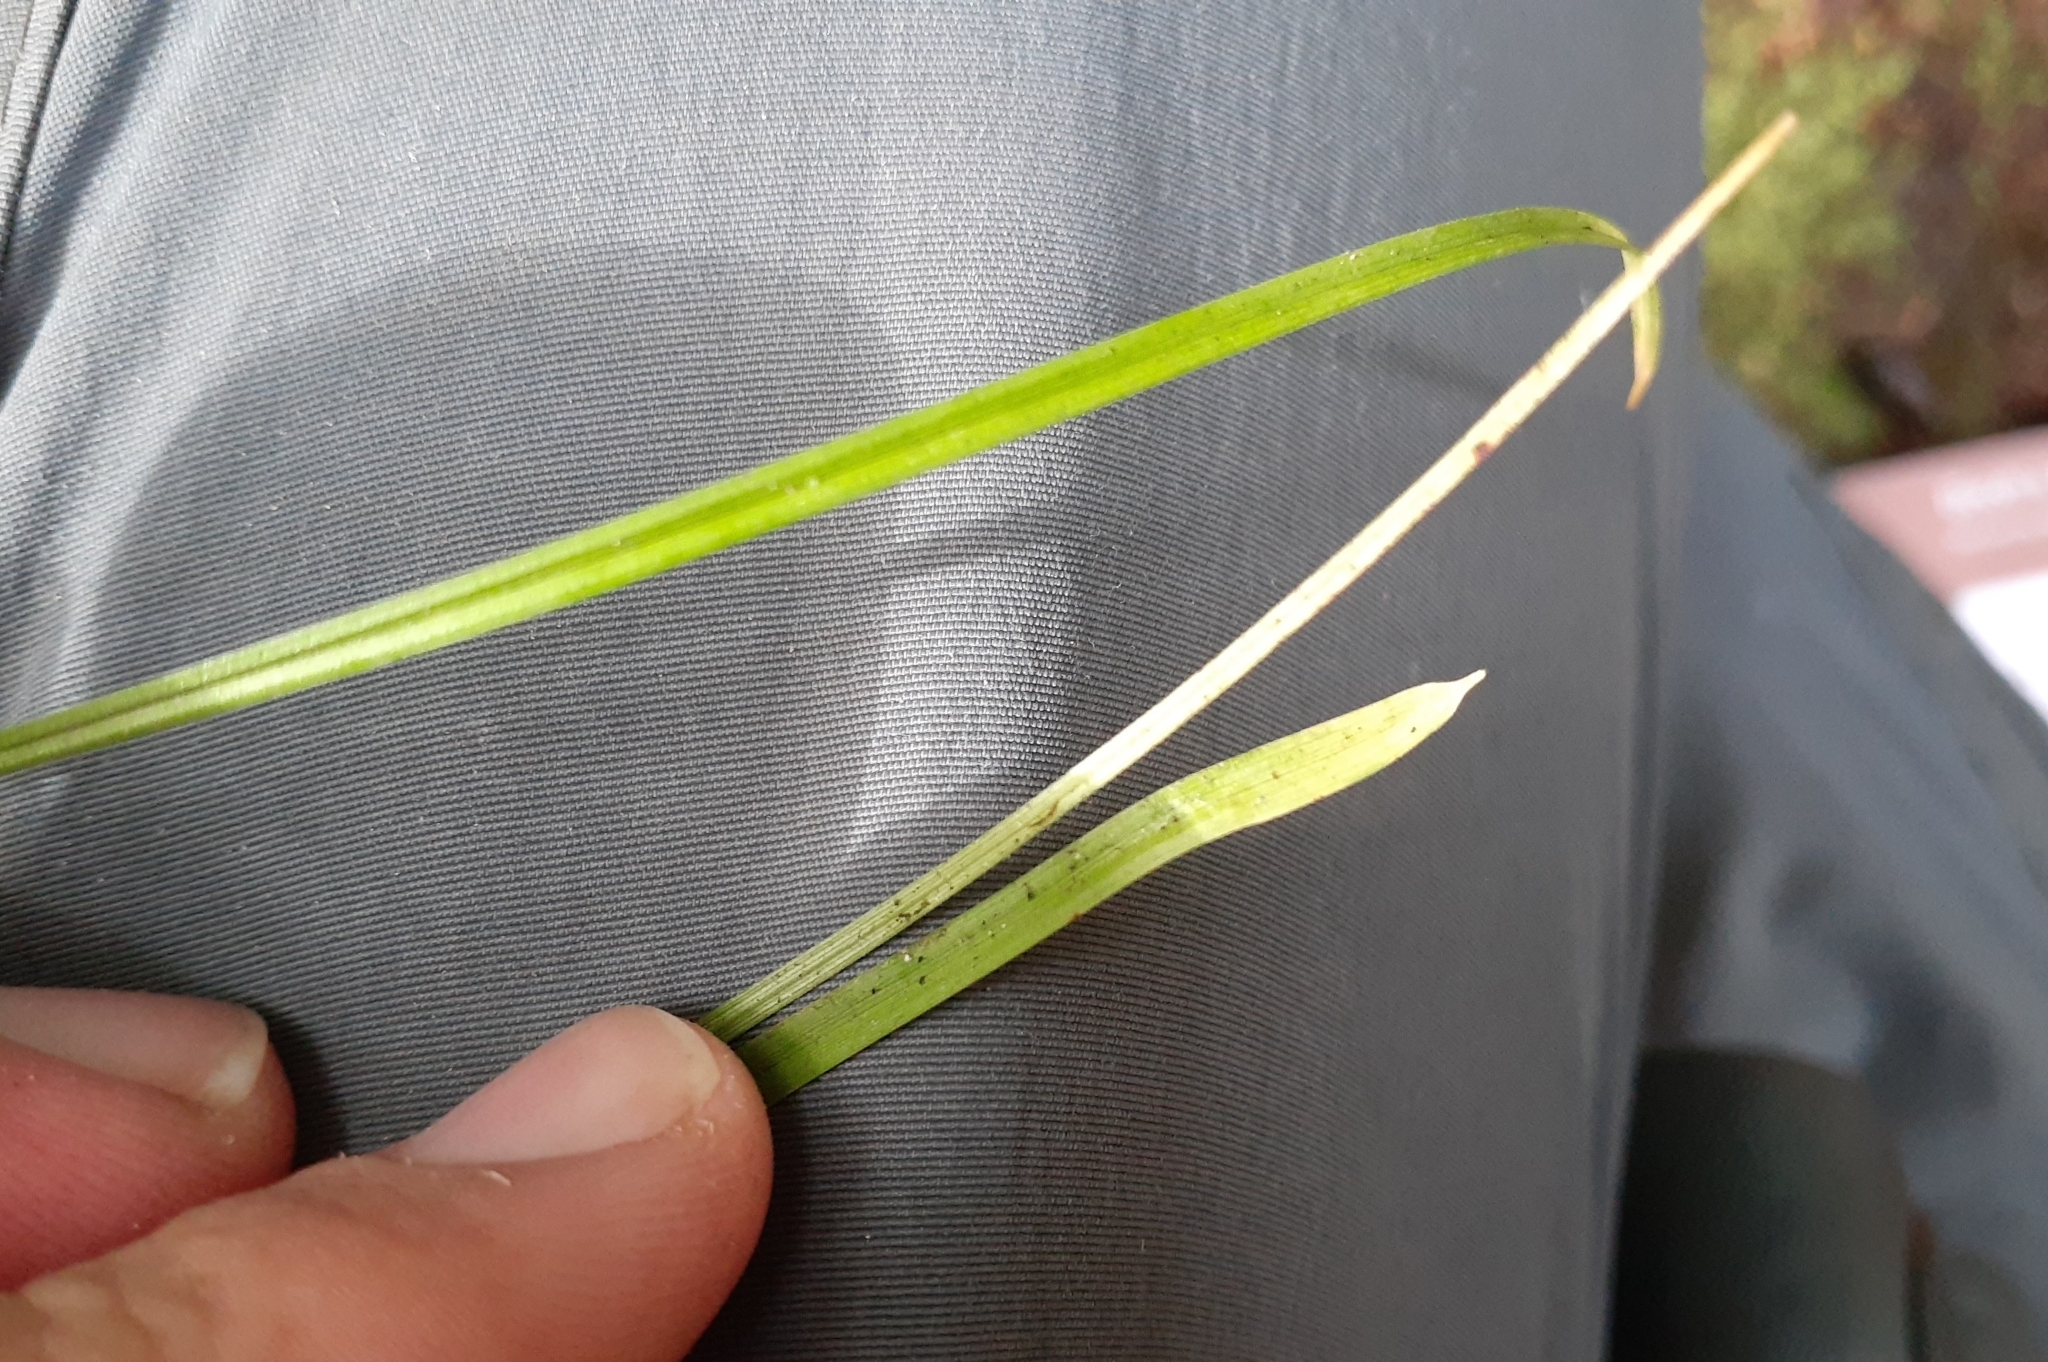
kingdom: Plantae
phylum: Tracheophyta
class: Liliopsida
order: Poales
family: Cyperaceae
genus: Carex
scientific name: Carex pedunculata
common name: Pedunculate sedge
